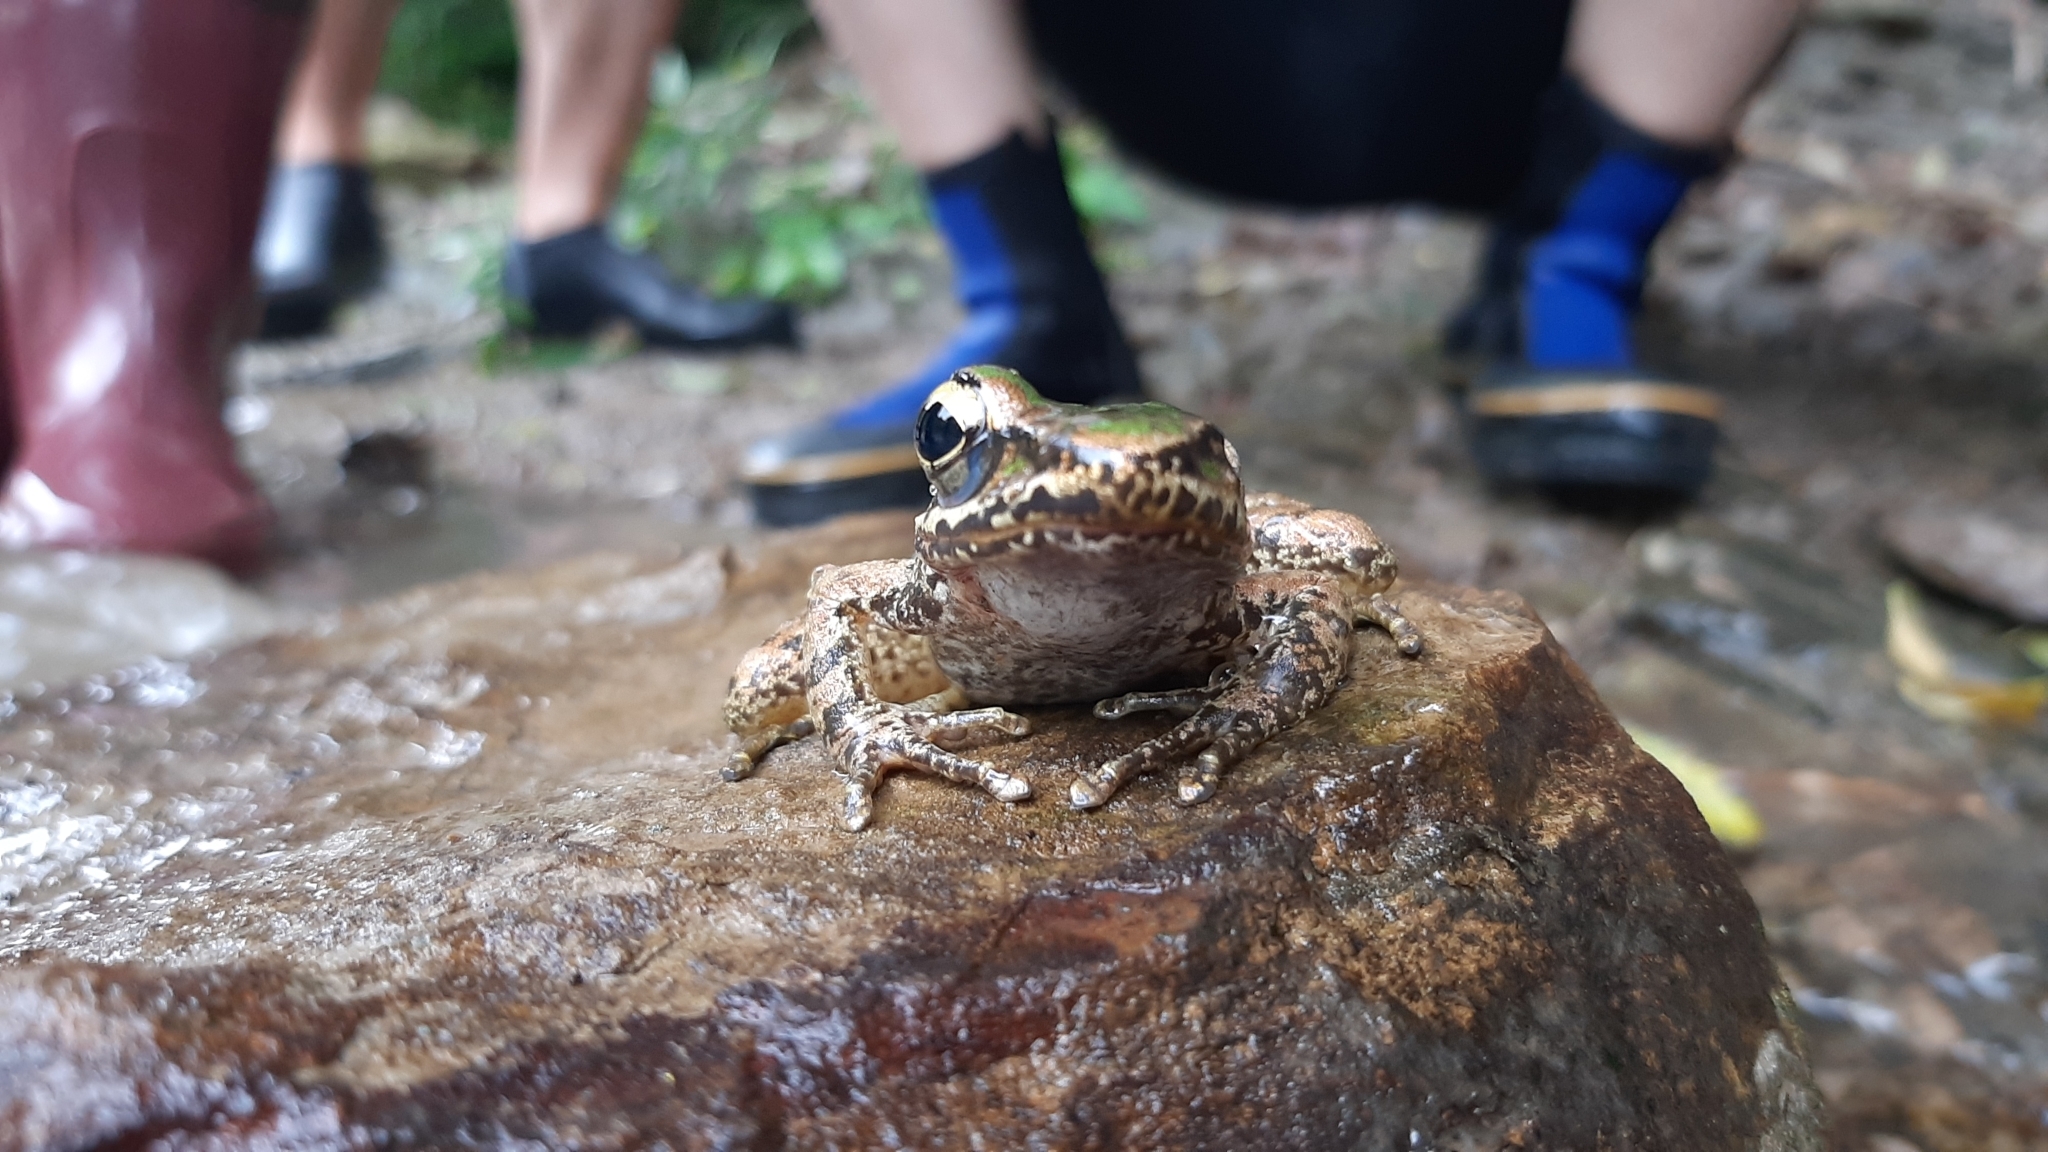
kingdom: Animalia
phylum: Chordata
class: Amphibia
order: Anura
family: Ranidae
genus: Odorrana
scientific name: Odorrana swinhoana
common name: Bangkimtsing frog
